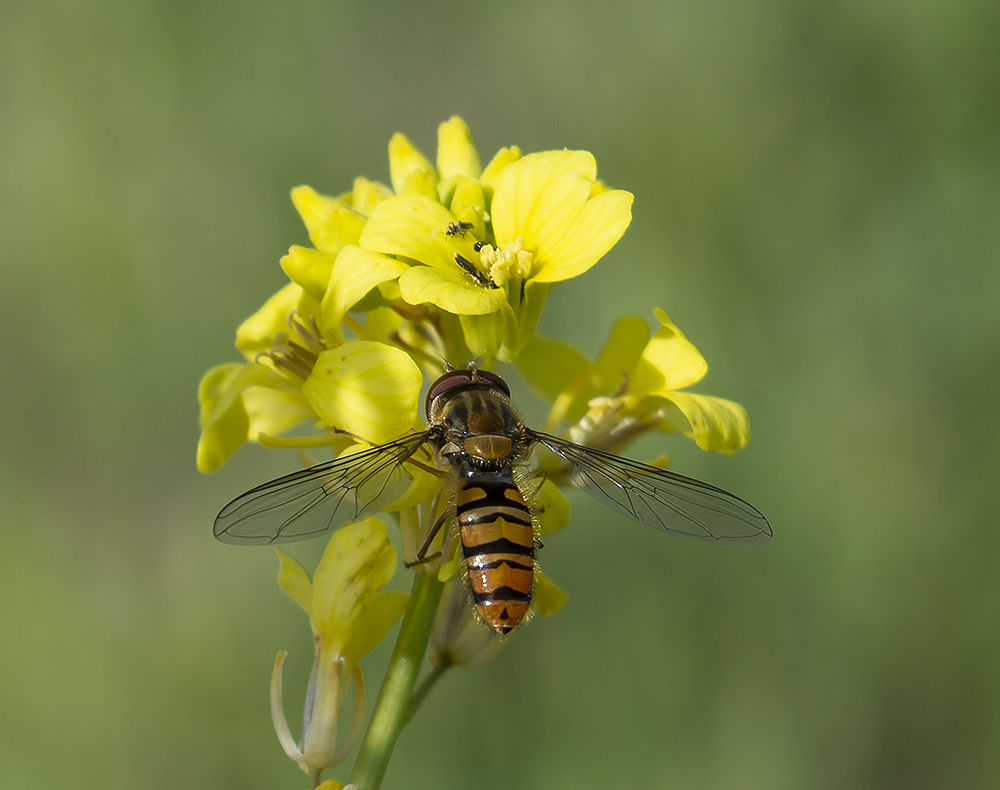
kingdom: Animalia
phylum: Arthropoda
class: Insecta
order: Diptera
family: Syrphidae
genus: Episyrphus
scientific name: Episyrphus balteatus
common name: Marmalade hoverfly
